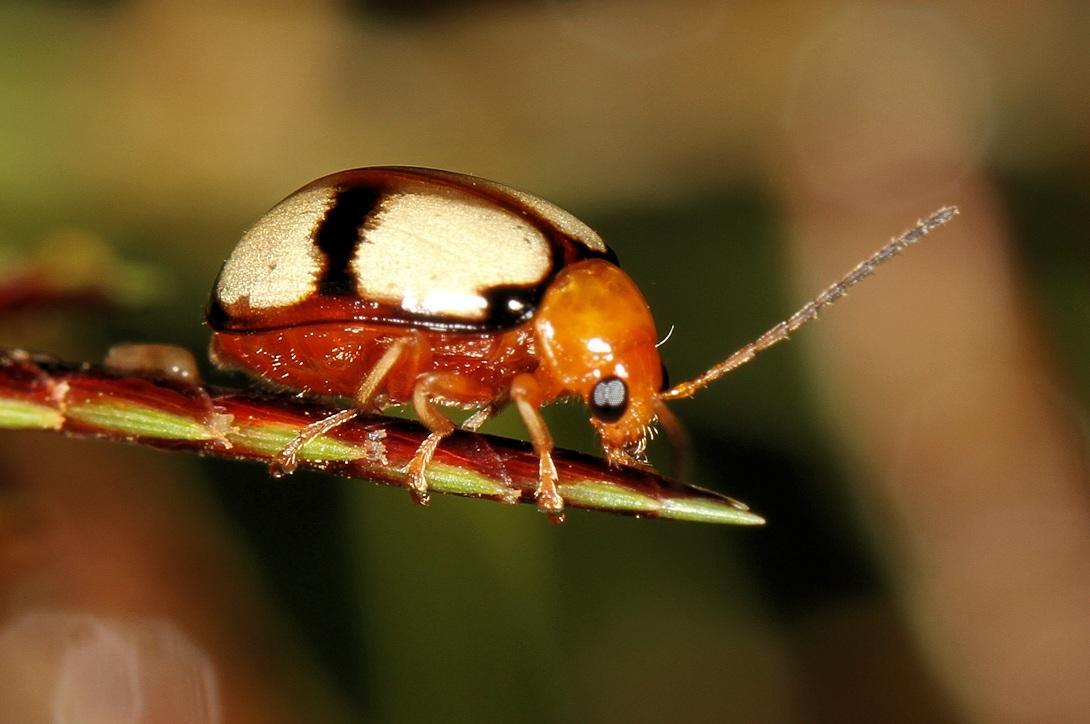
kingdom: Animalia
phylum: Arthropoda
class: Insecta
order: Coleoptera
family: Chrysomelidae
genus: Monolepta
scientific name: Monolepta
